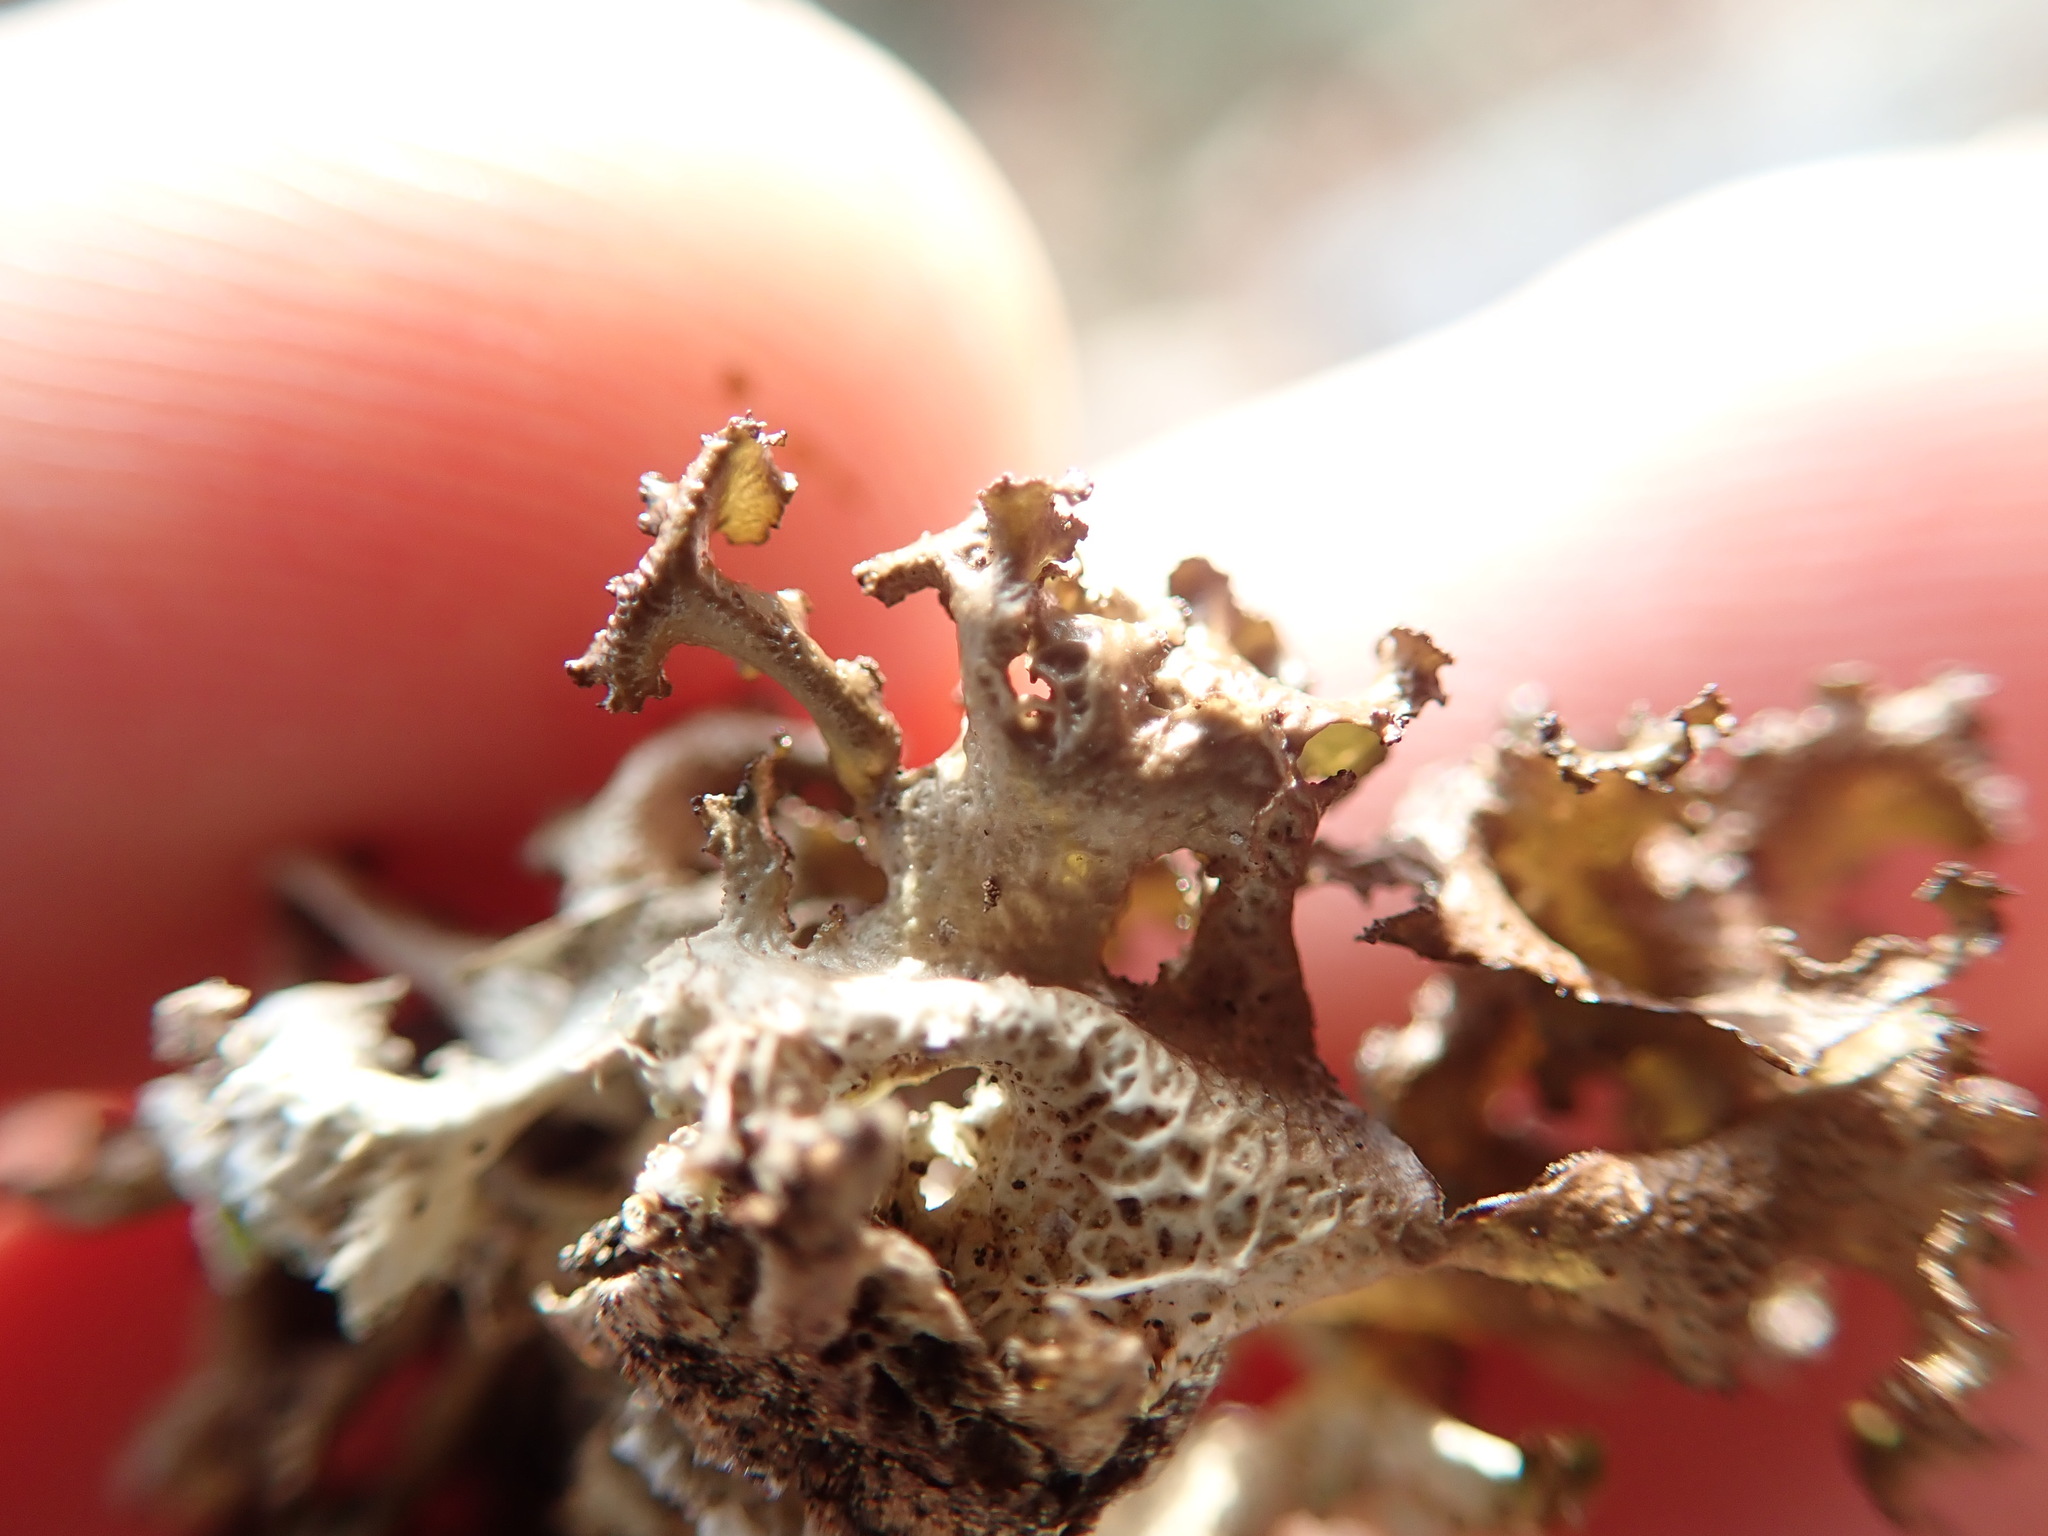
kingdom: Fungi
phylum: Ascomycota
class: Lecanoromycetes
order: Lecanorales
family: Parmeliaceae
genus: Nephromopsis
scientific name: Nephromopsis chlorophylla
